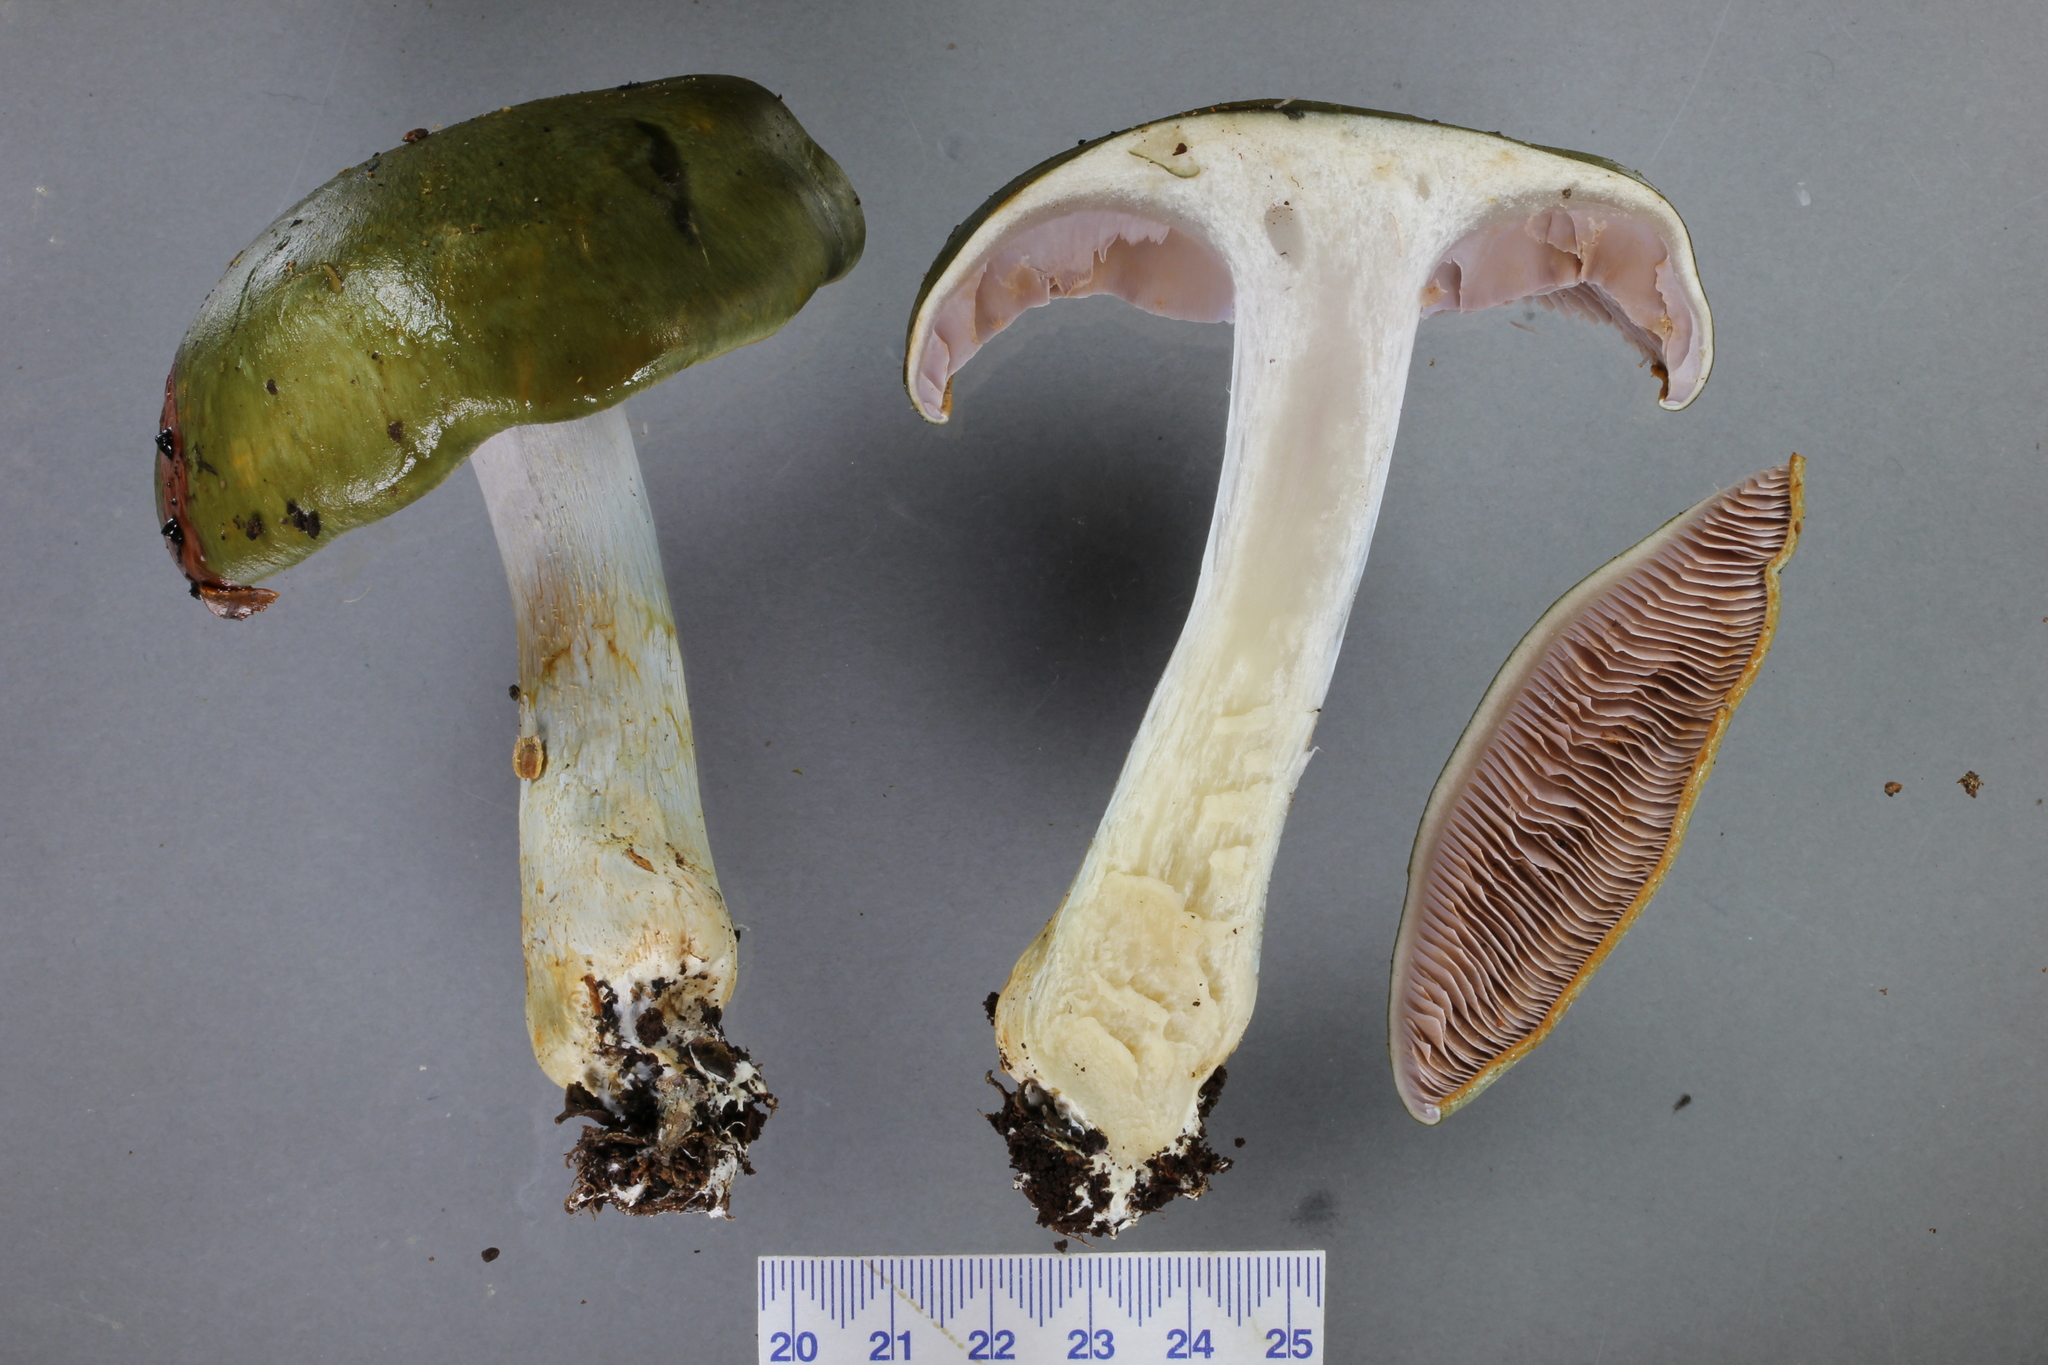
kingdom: Fungi
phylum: Basidiomycota
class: Agaricomycetes
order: Agaricales
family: Cortinariaceae
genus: Cortinarius
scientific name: Cortinarius viridipileatus
